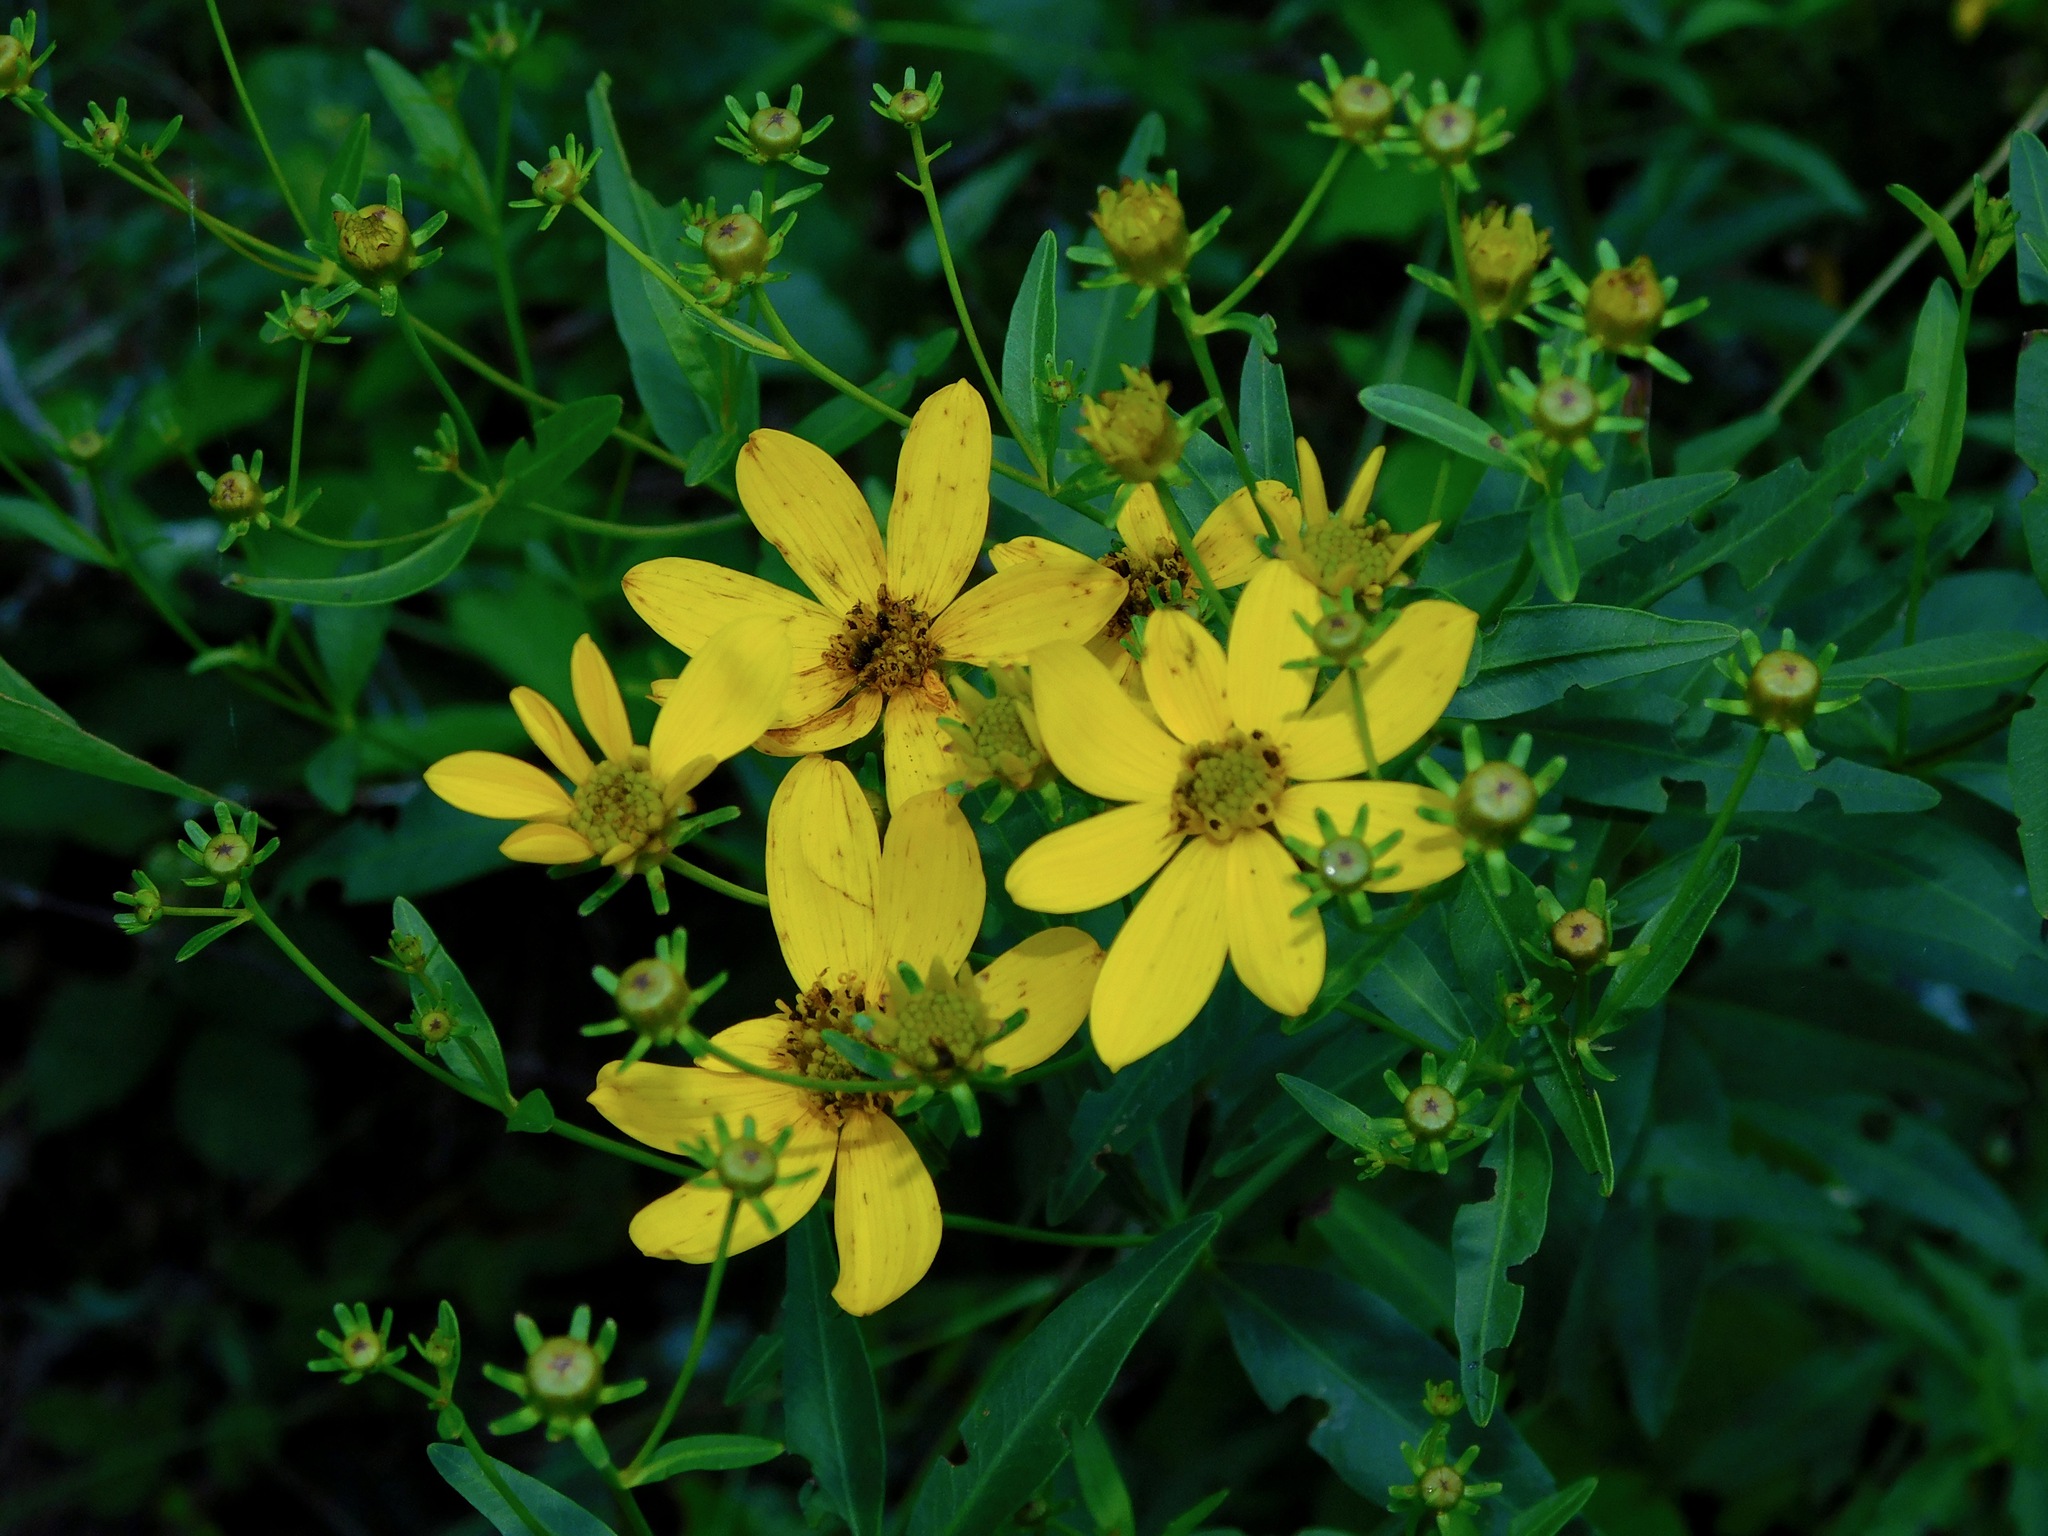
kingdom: Plantae
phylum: Tracheophyta
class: Magnoliopsida
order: Asterales
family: Asteraceae
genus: Coreopsis
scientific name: Coreopsis major
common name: Forest tickseed
